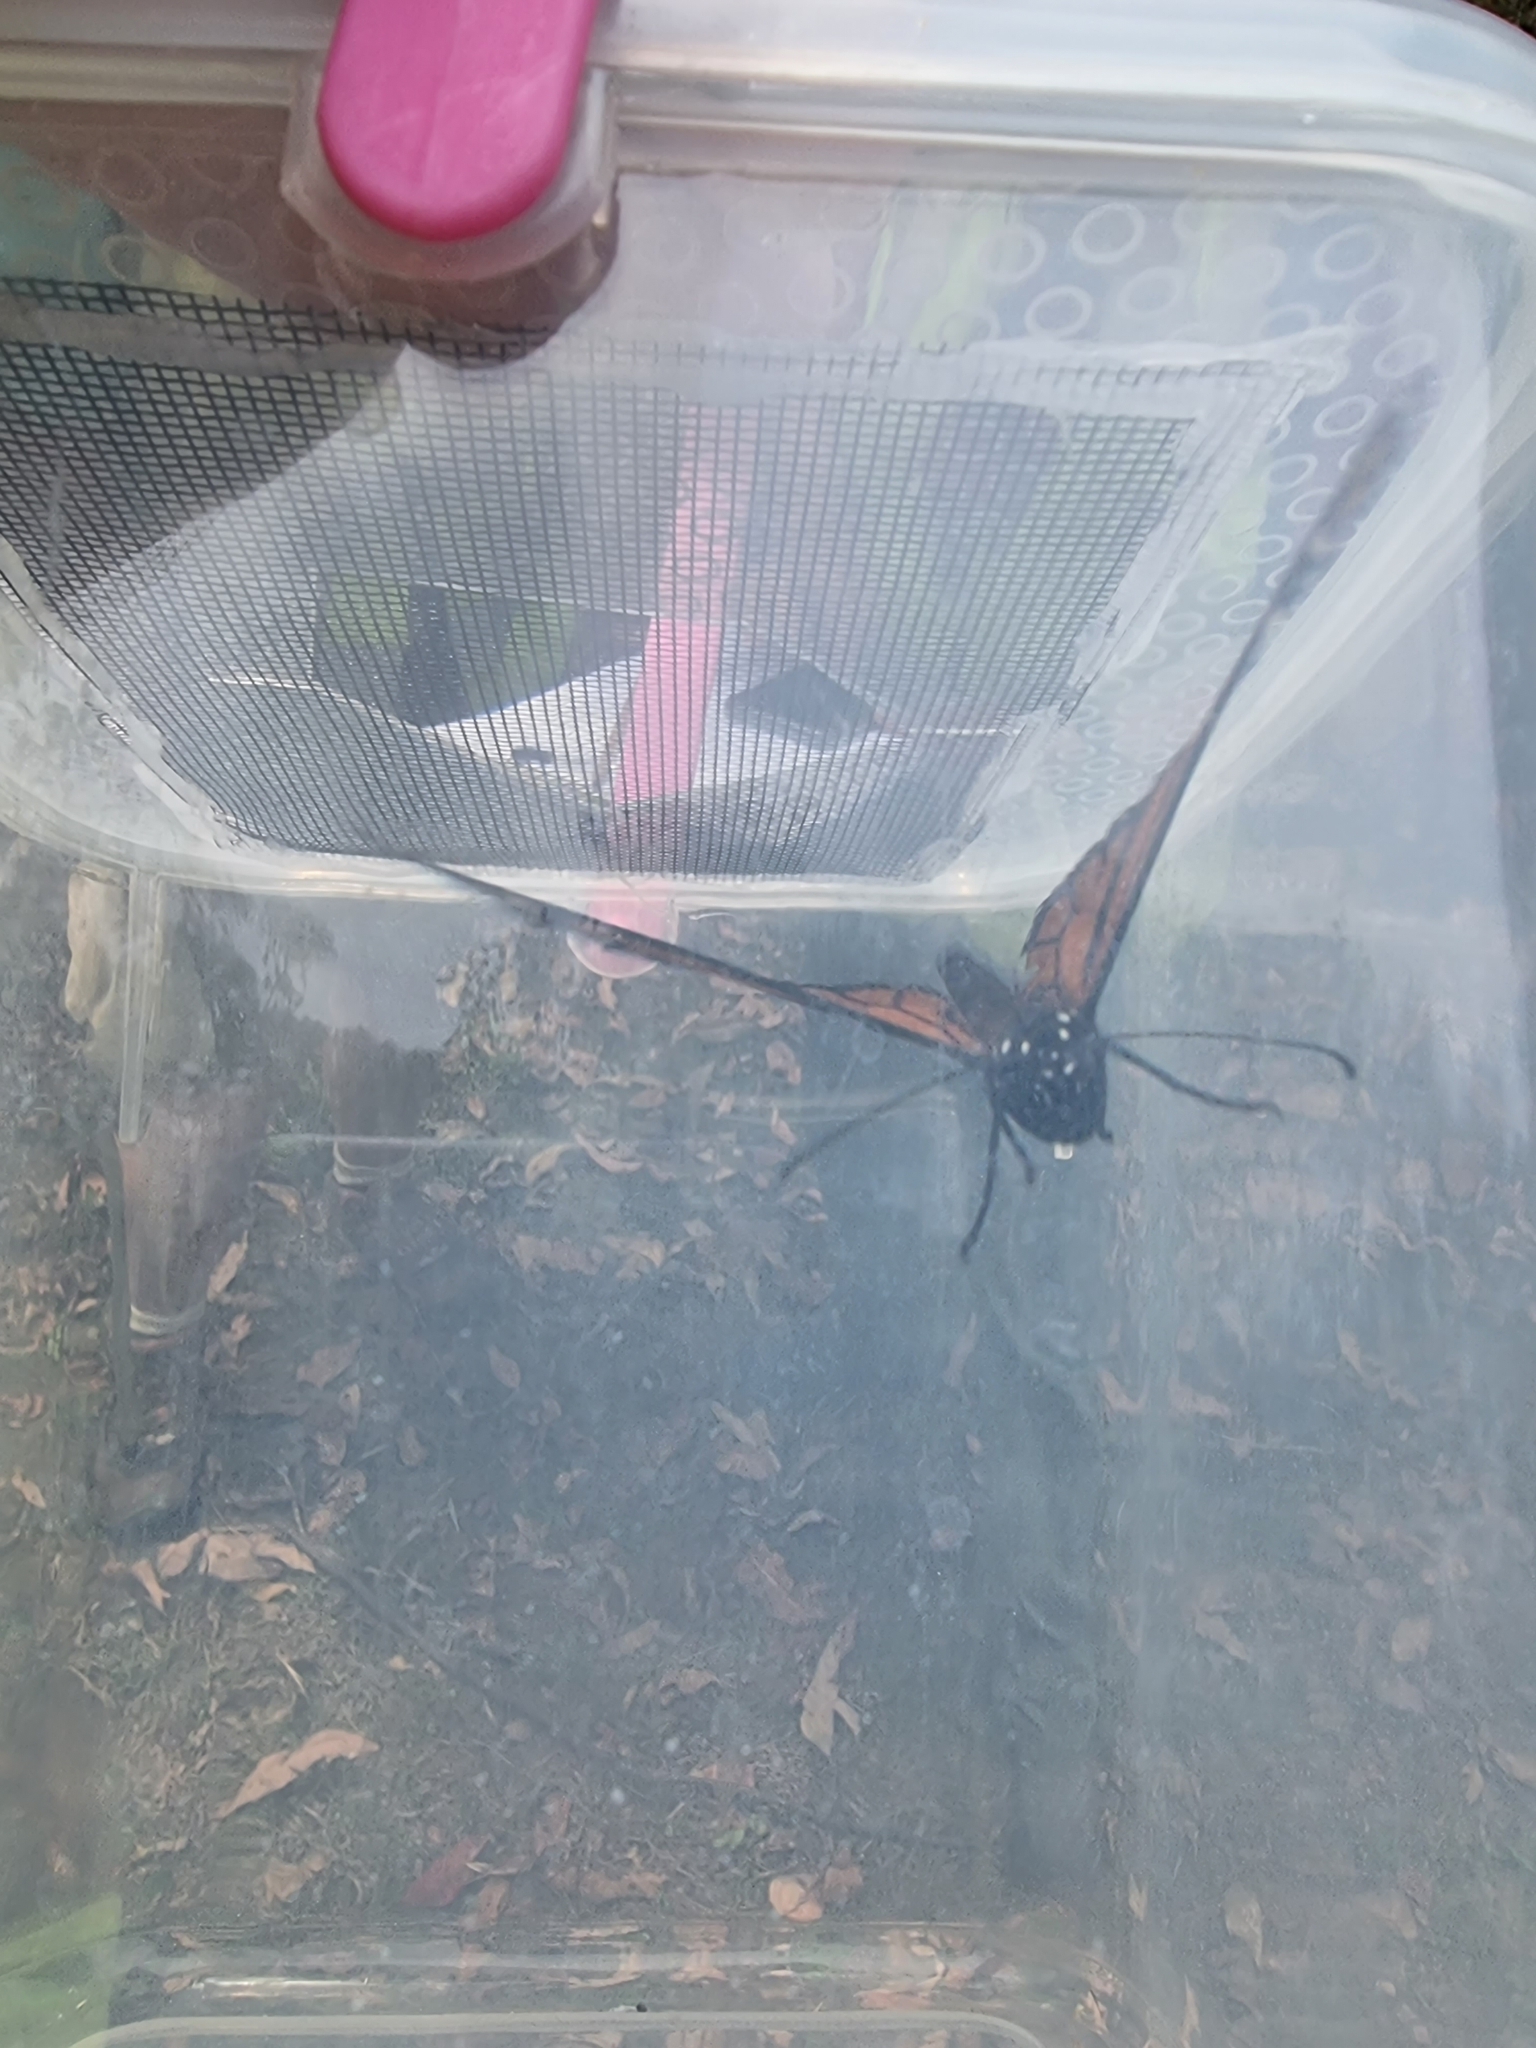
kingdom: Animalia
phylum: Arthropoda
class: Insecta
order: Lepidoptera
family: Nymphalidae
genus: Danaus
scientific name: Danaus plexippus
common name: Monarch
